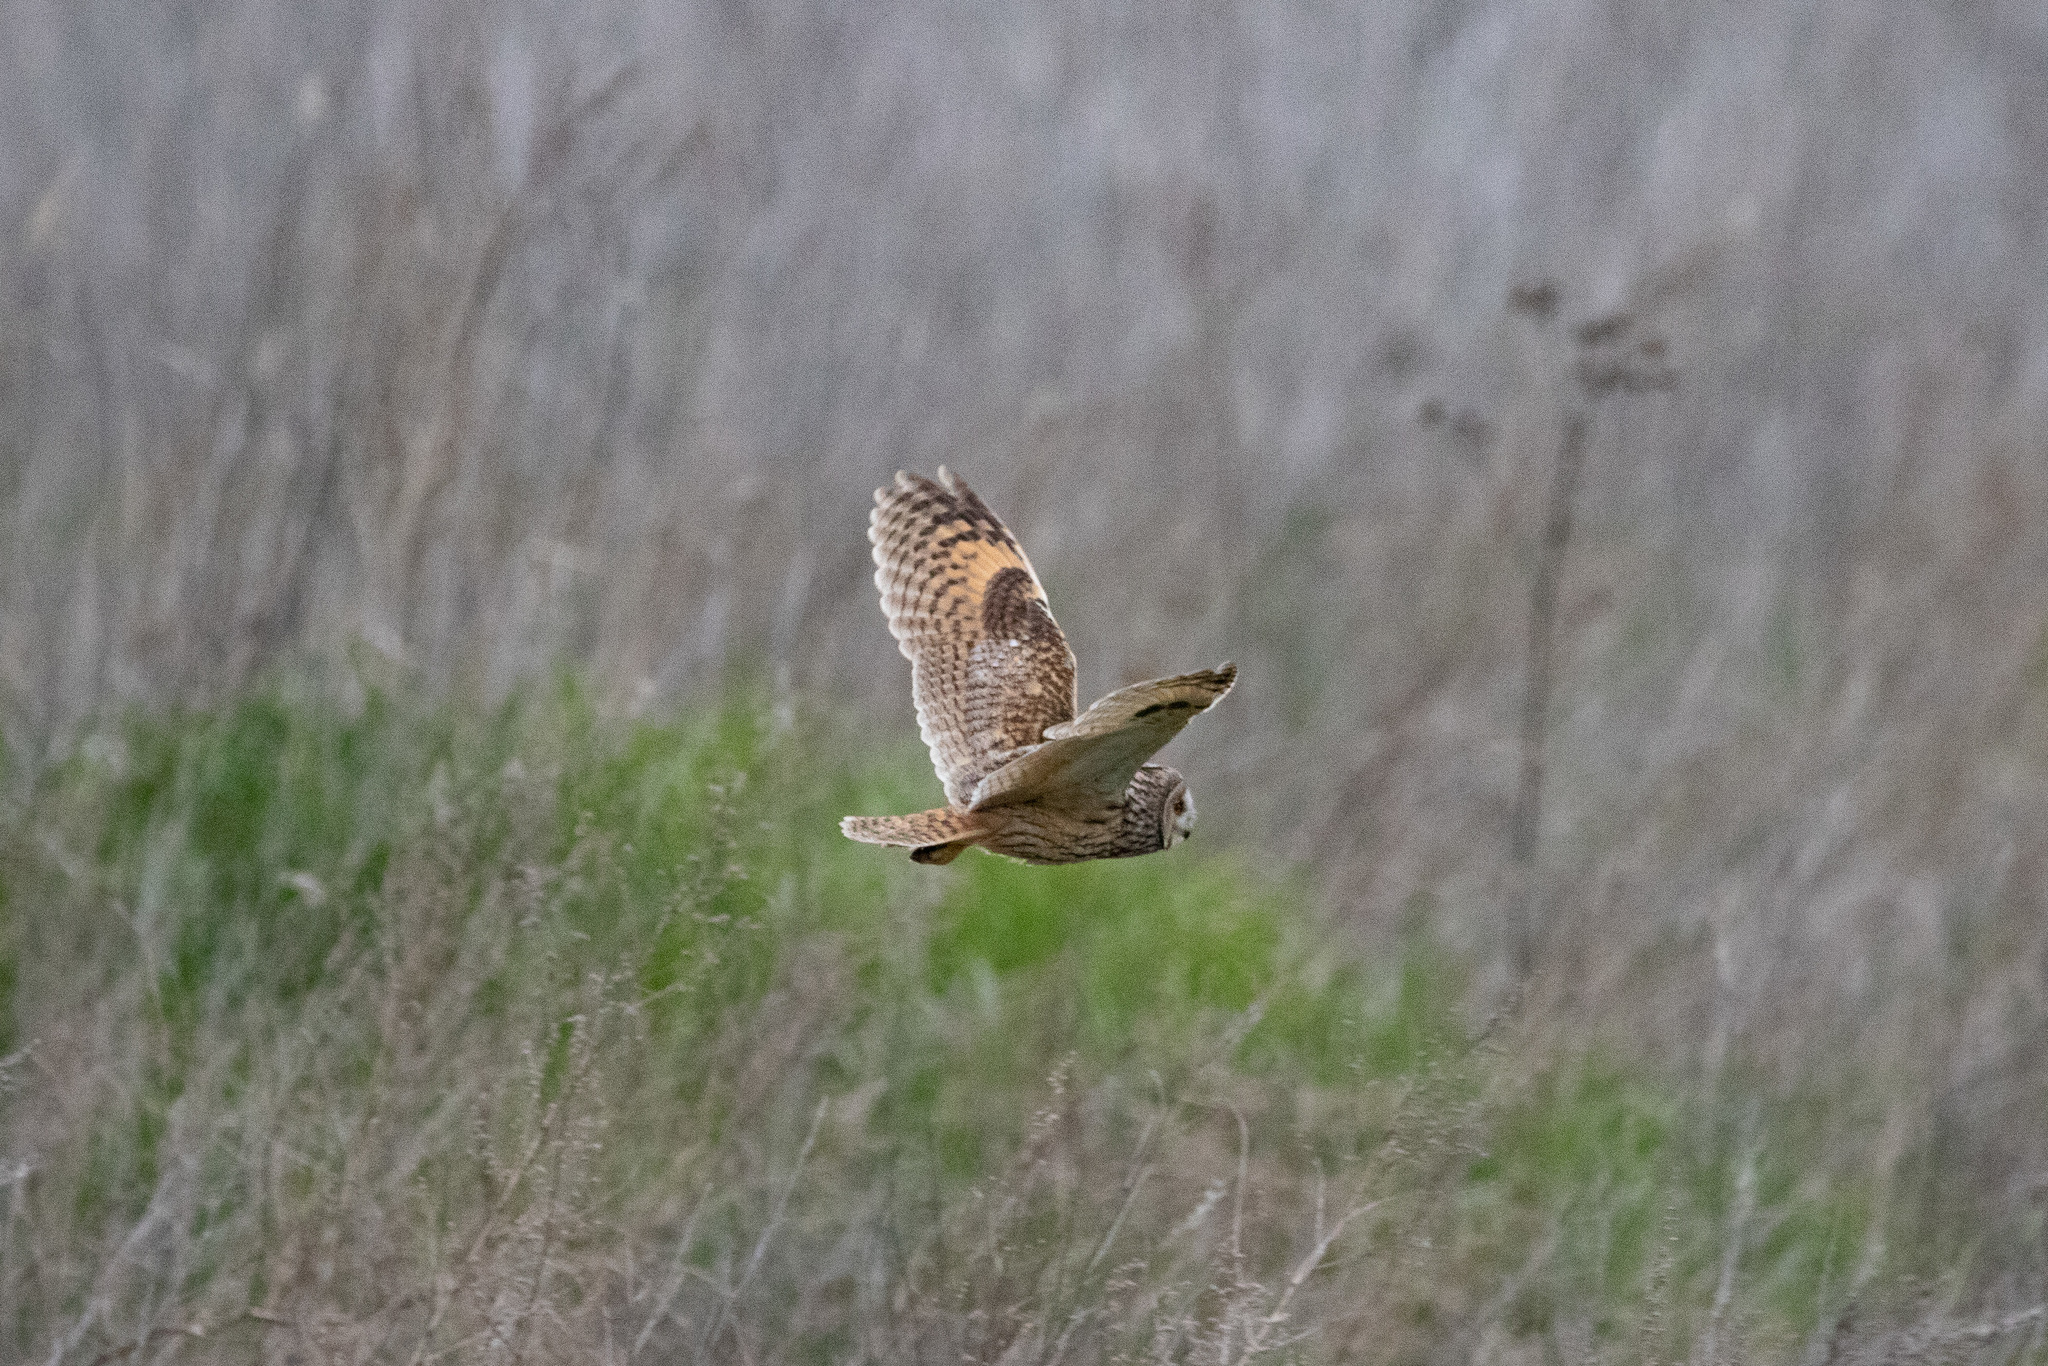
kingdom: Animalia
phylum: Chordata
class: Aves
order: Strigiformes
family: Strigidae
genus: Asio
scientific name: Asio otus
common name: Long-eared owl
